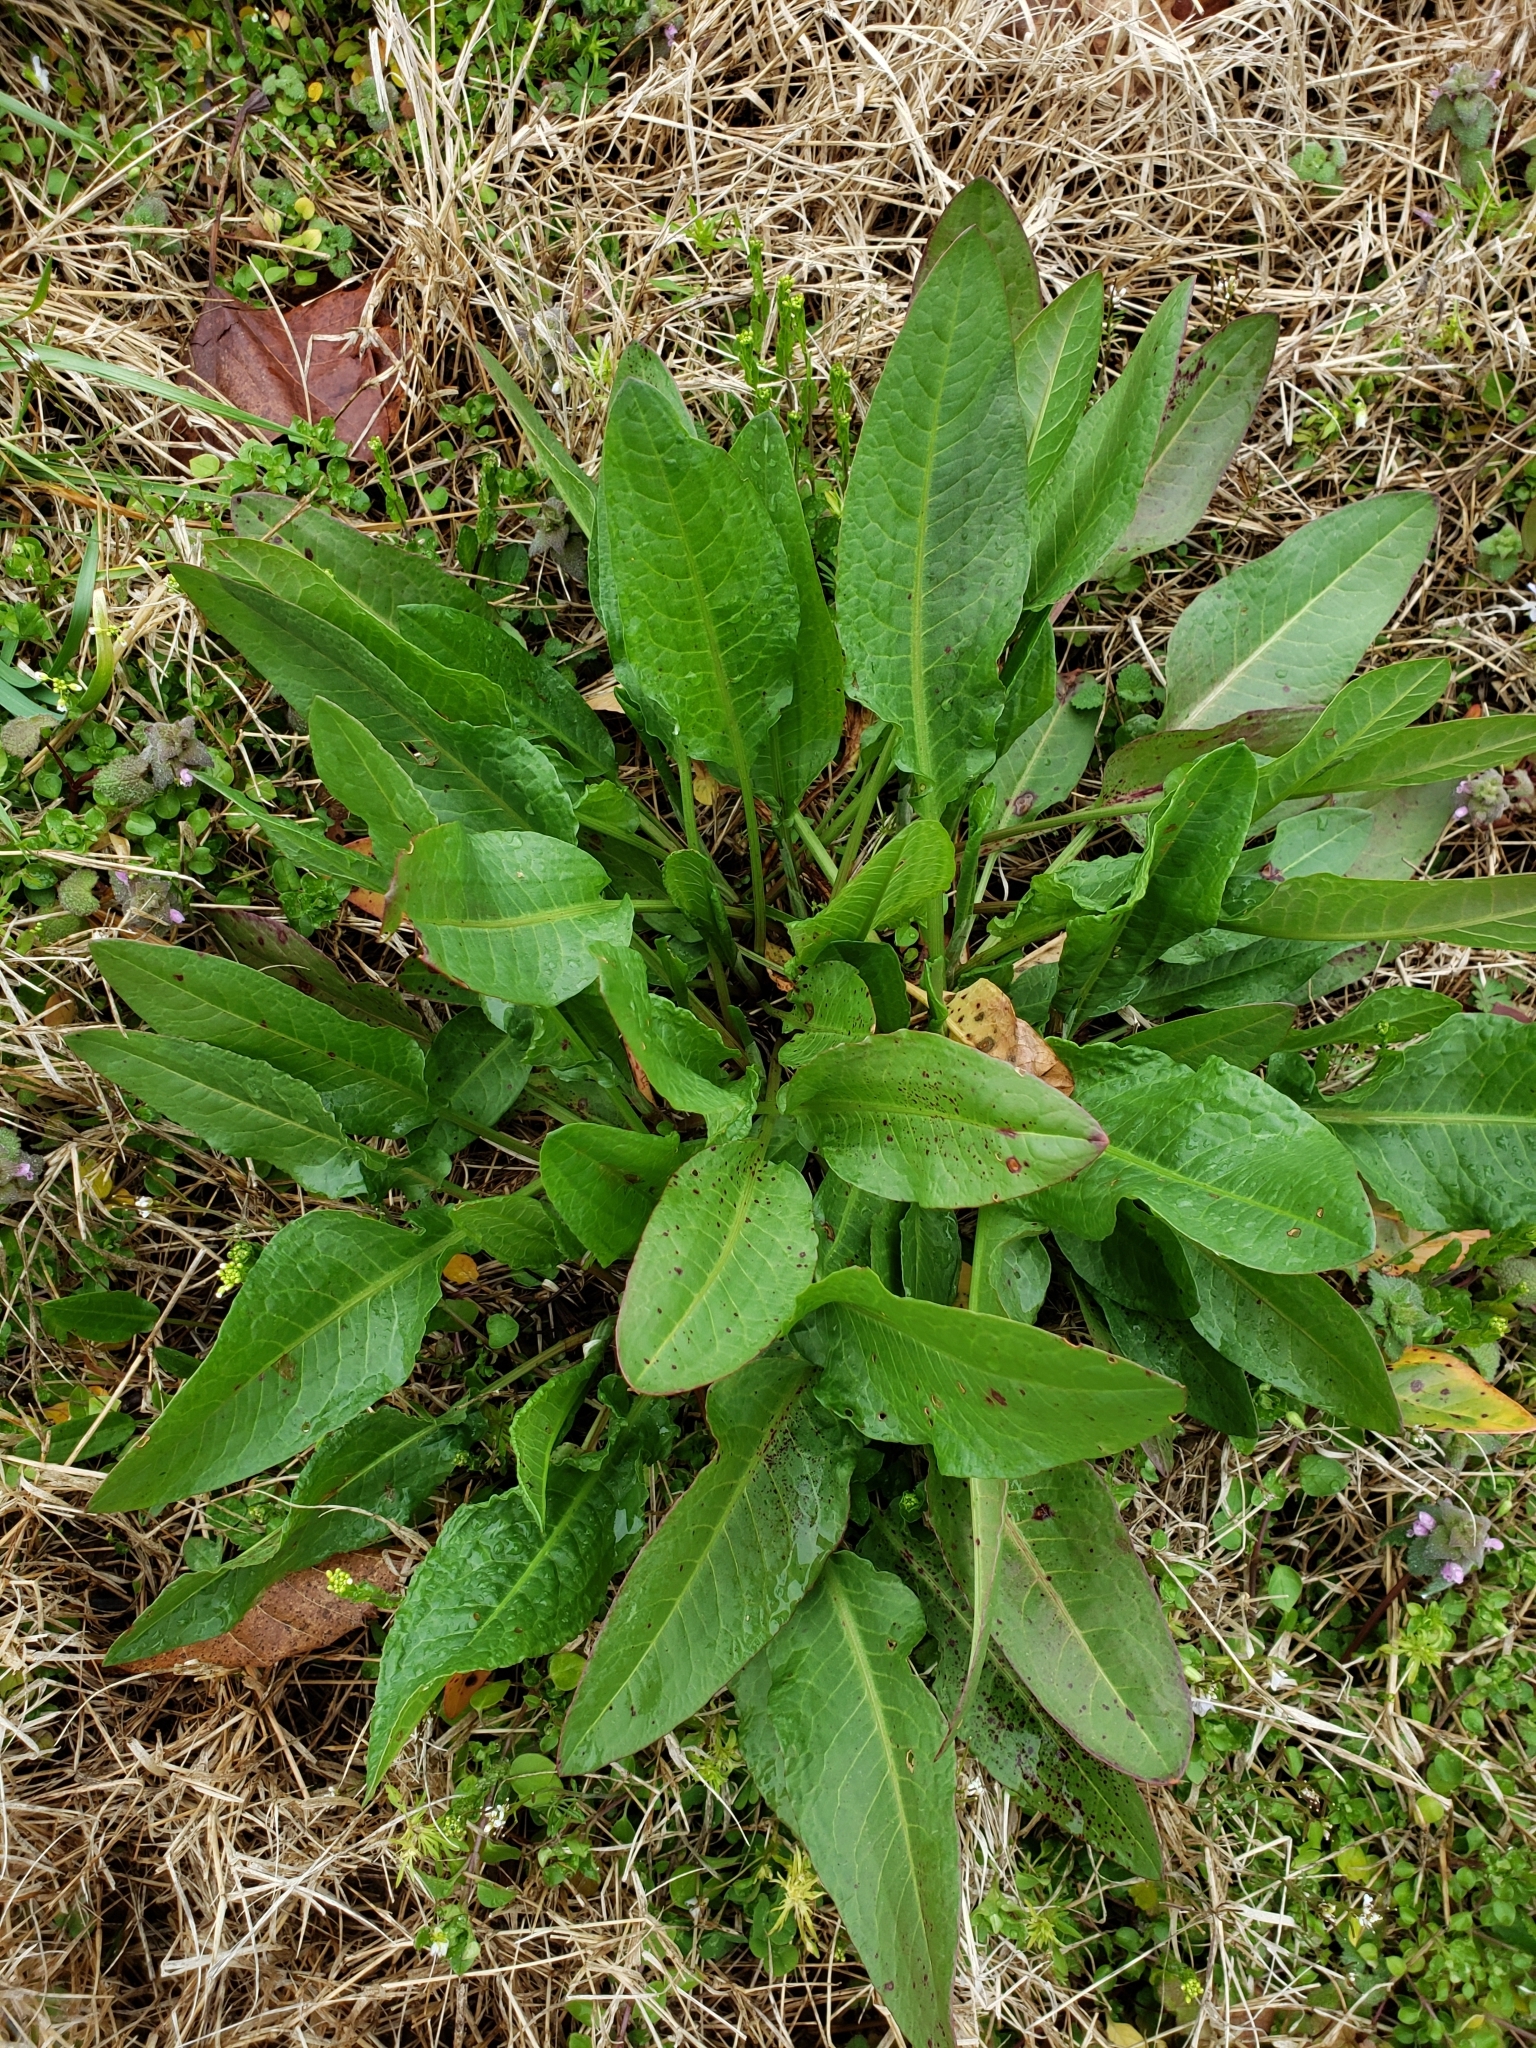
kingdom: Plantae
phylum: Tracheophyta
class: Magnoliopsida
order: Caryophyllales
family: Polygonaceae
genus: Rumex
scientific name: Rumex crispus
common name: Curled dock
